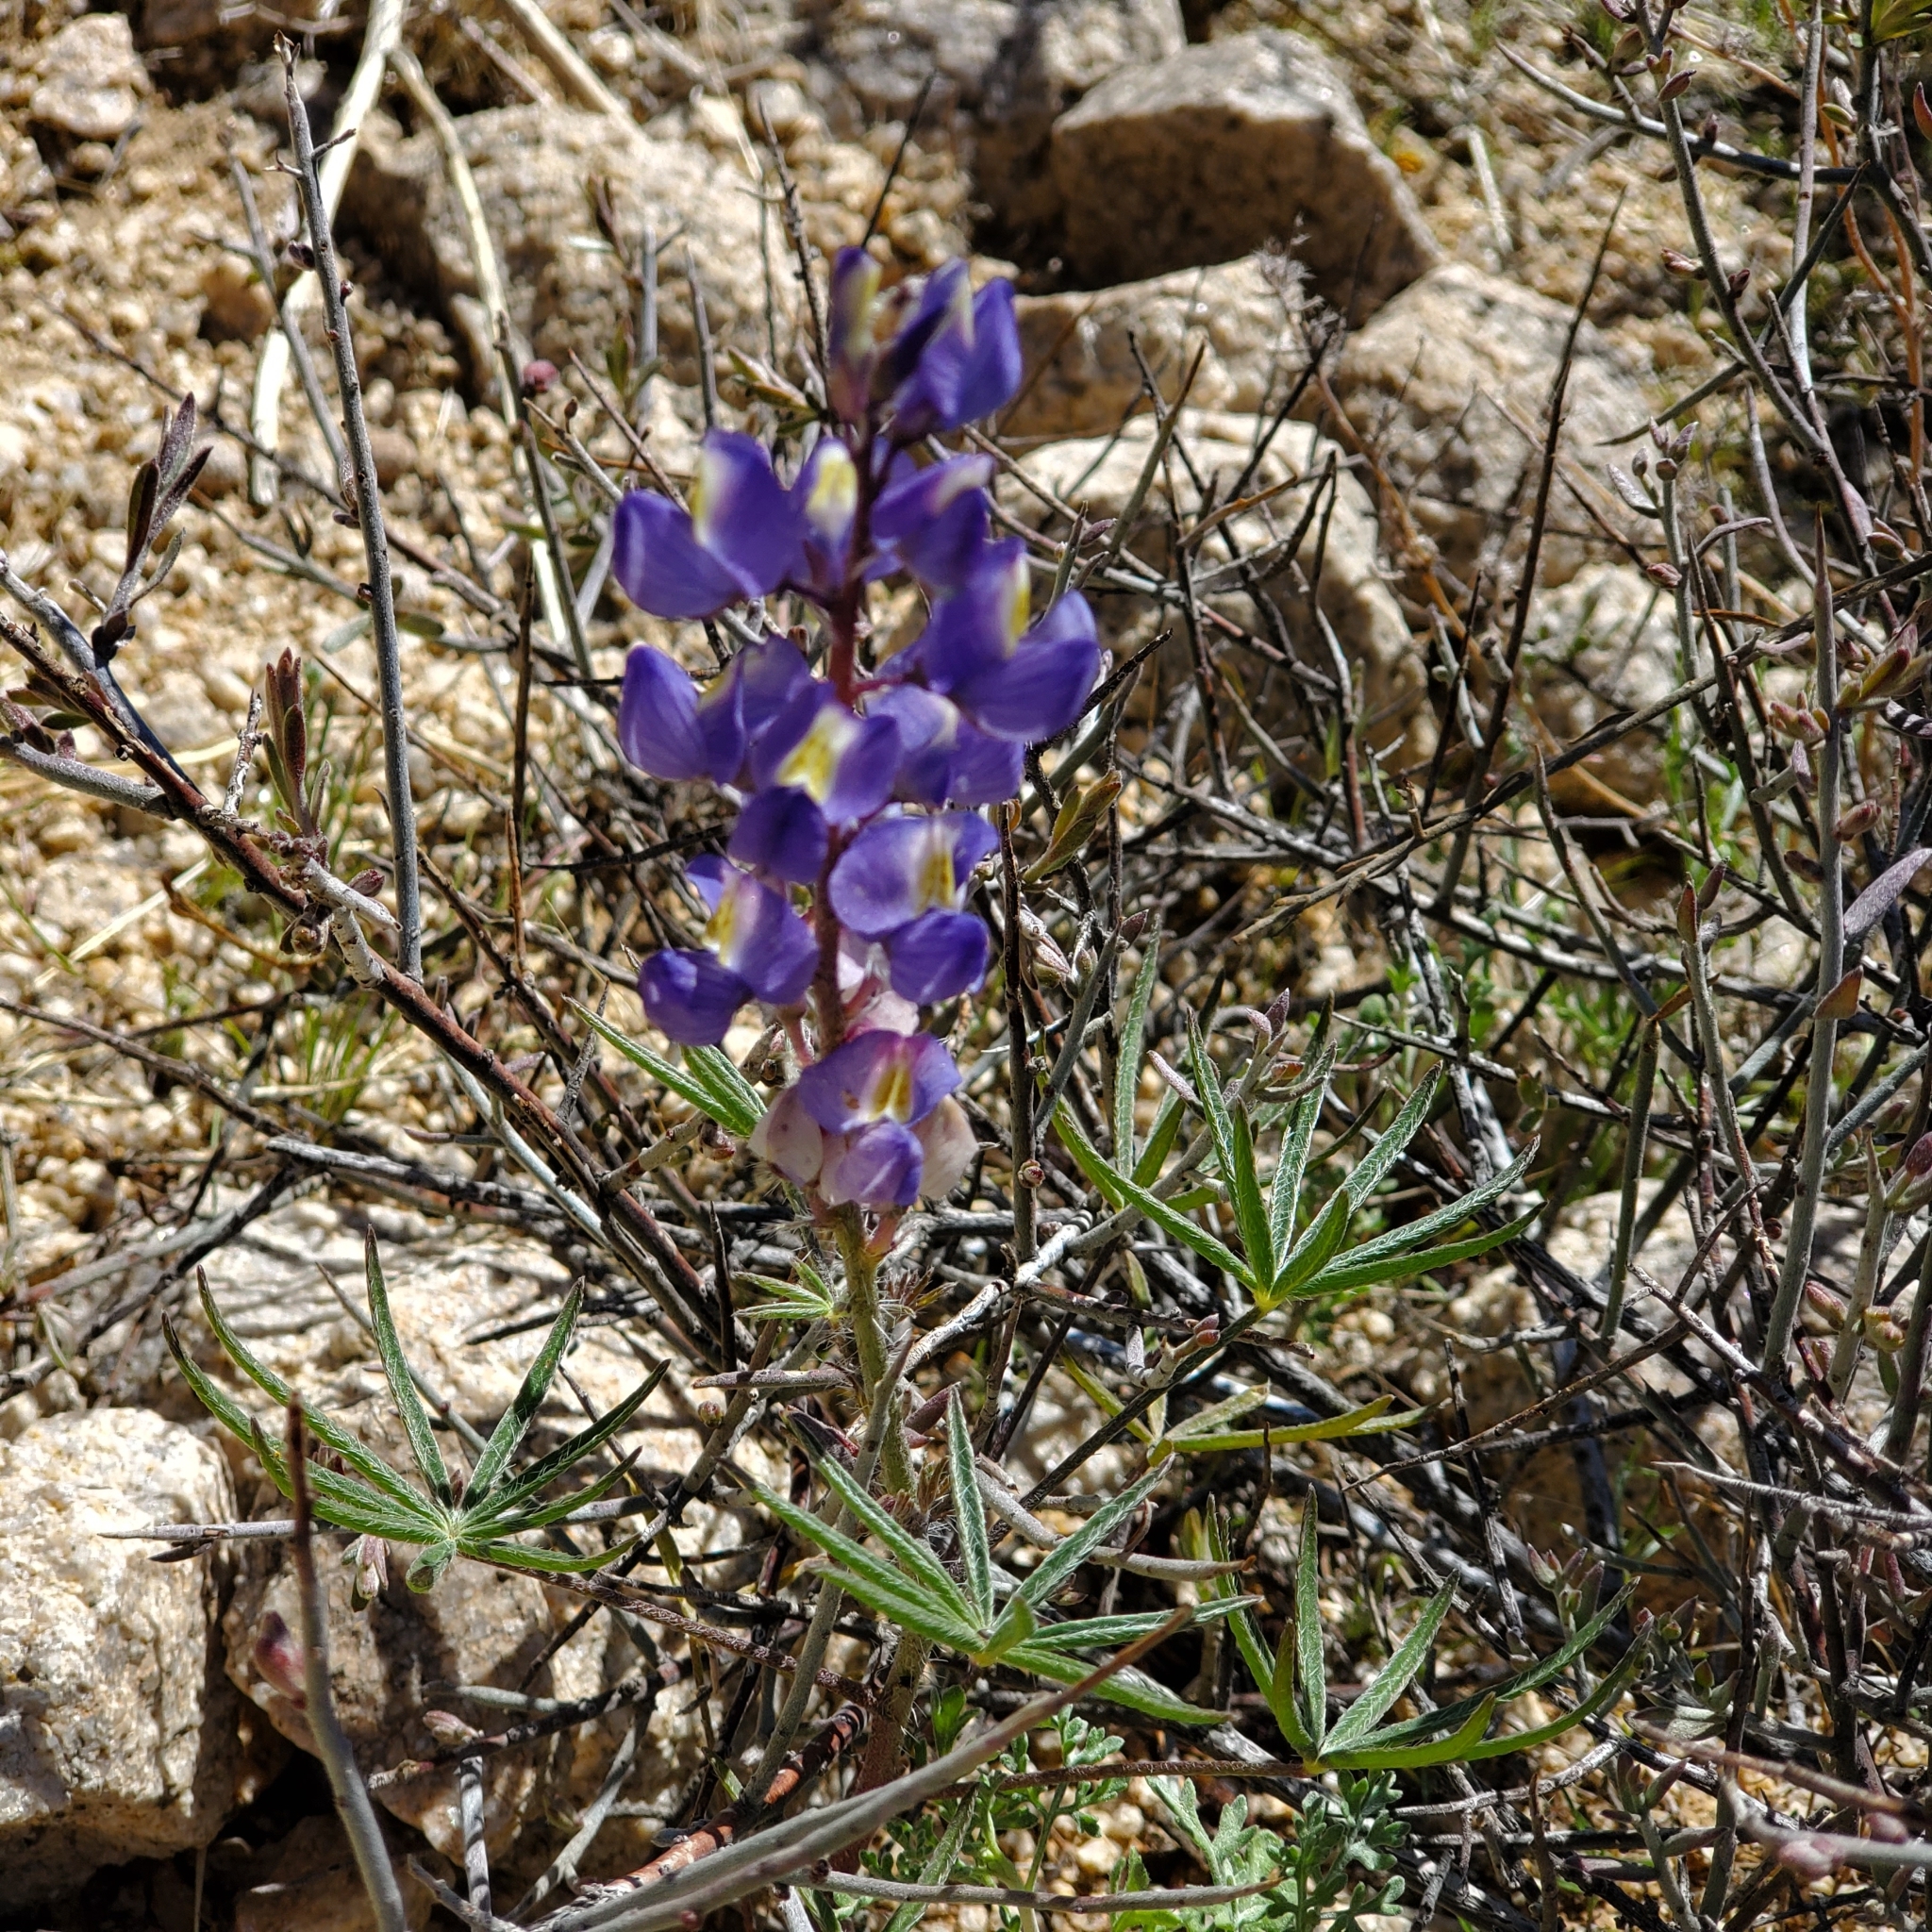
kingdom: Plantae
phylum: Tracheophyta
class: Magnoliopsida
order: Fabales
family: Fabaceae
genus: Lupinus
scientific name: Lupinus sparsiflorus
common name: Coulter's lupine
